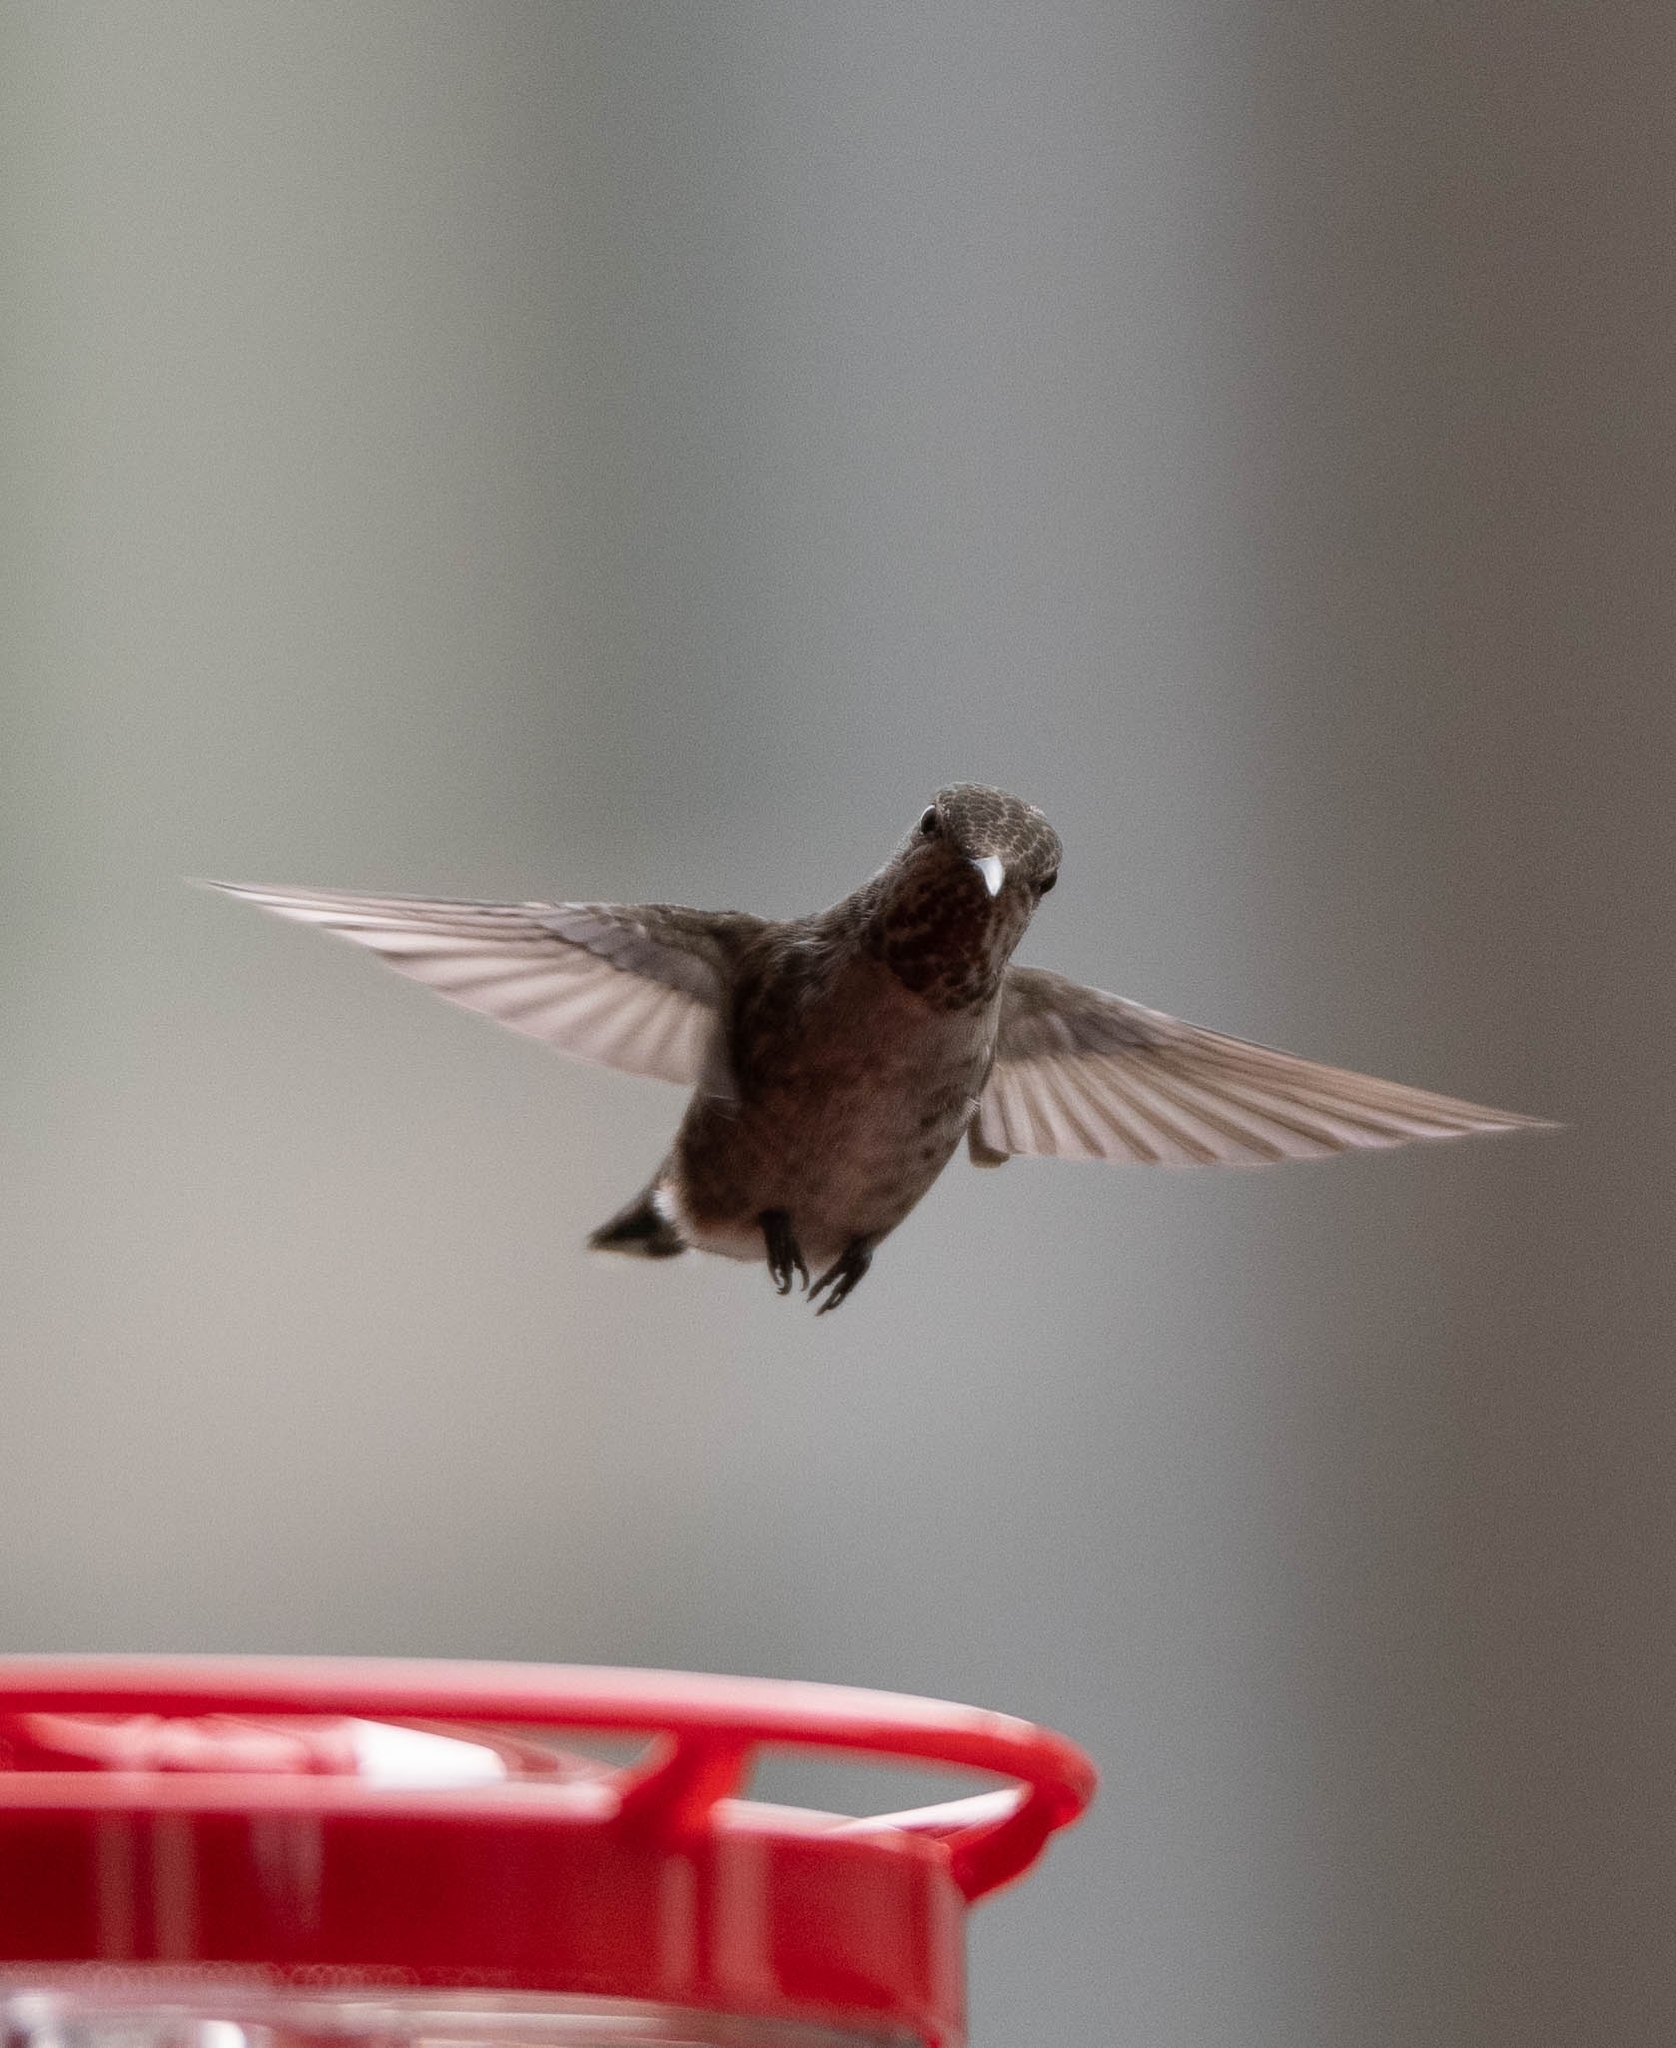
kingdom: Animalia
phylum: Chordata
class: Aves
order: Apodiformes
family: Trochilidae
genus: Calypte
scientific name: Calypte anna
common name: Anna's hummingbird
